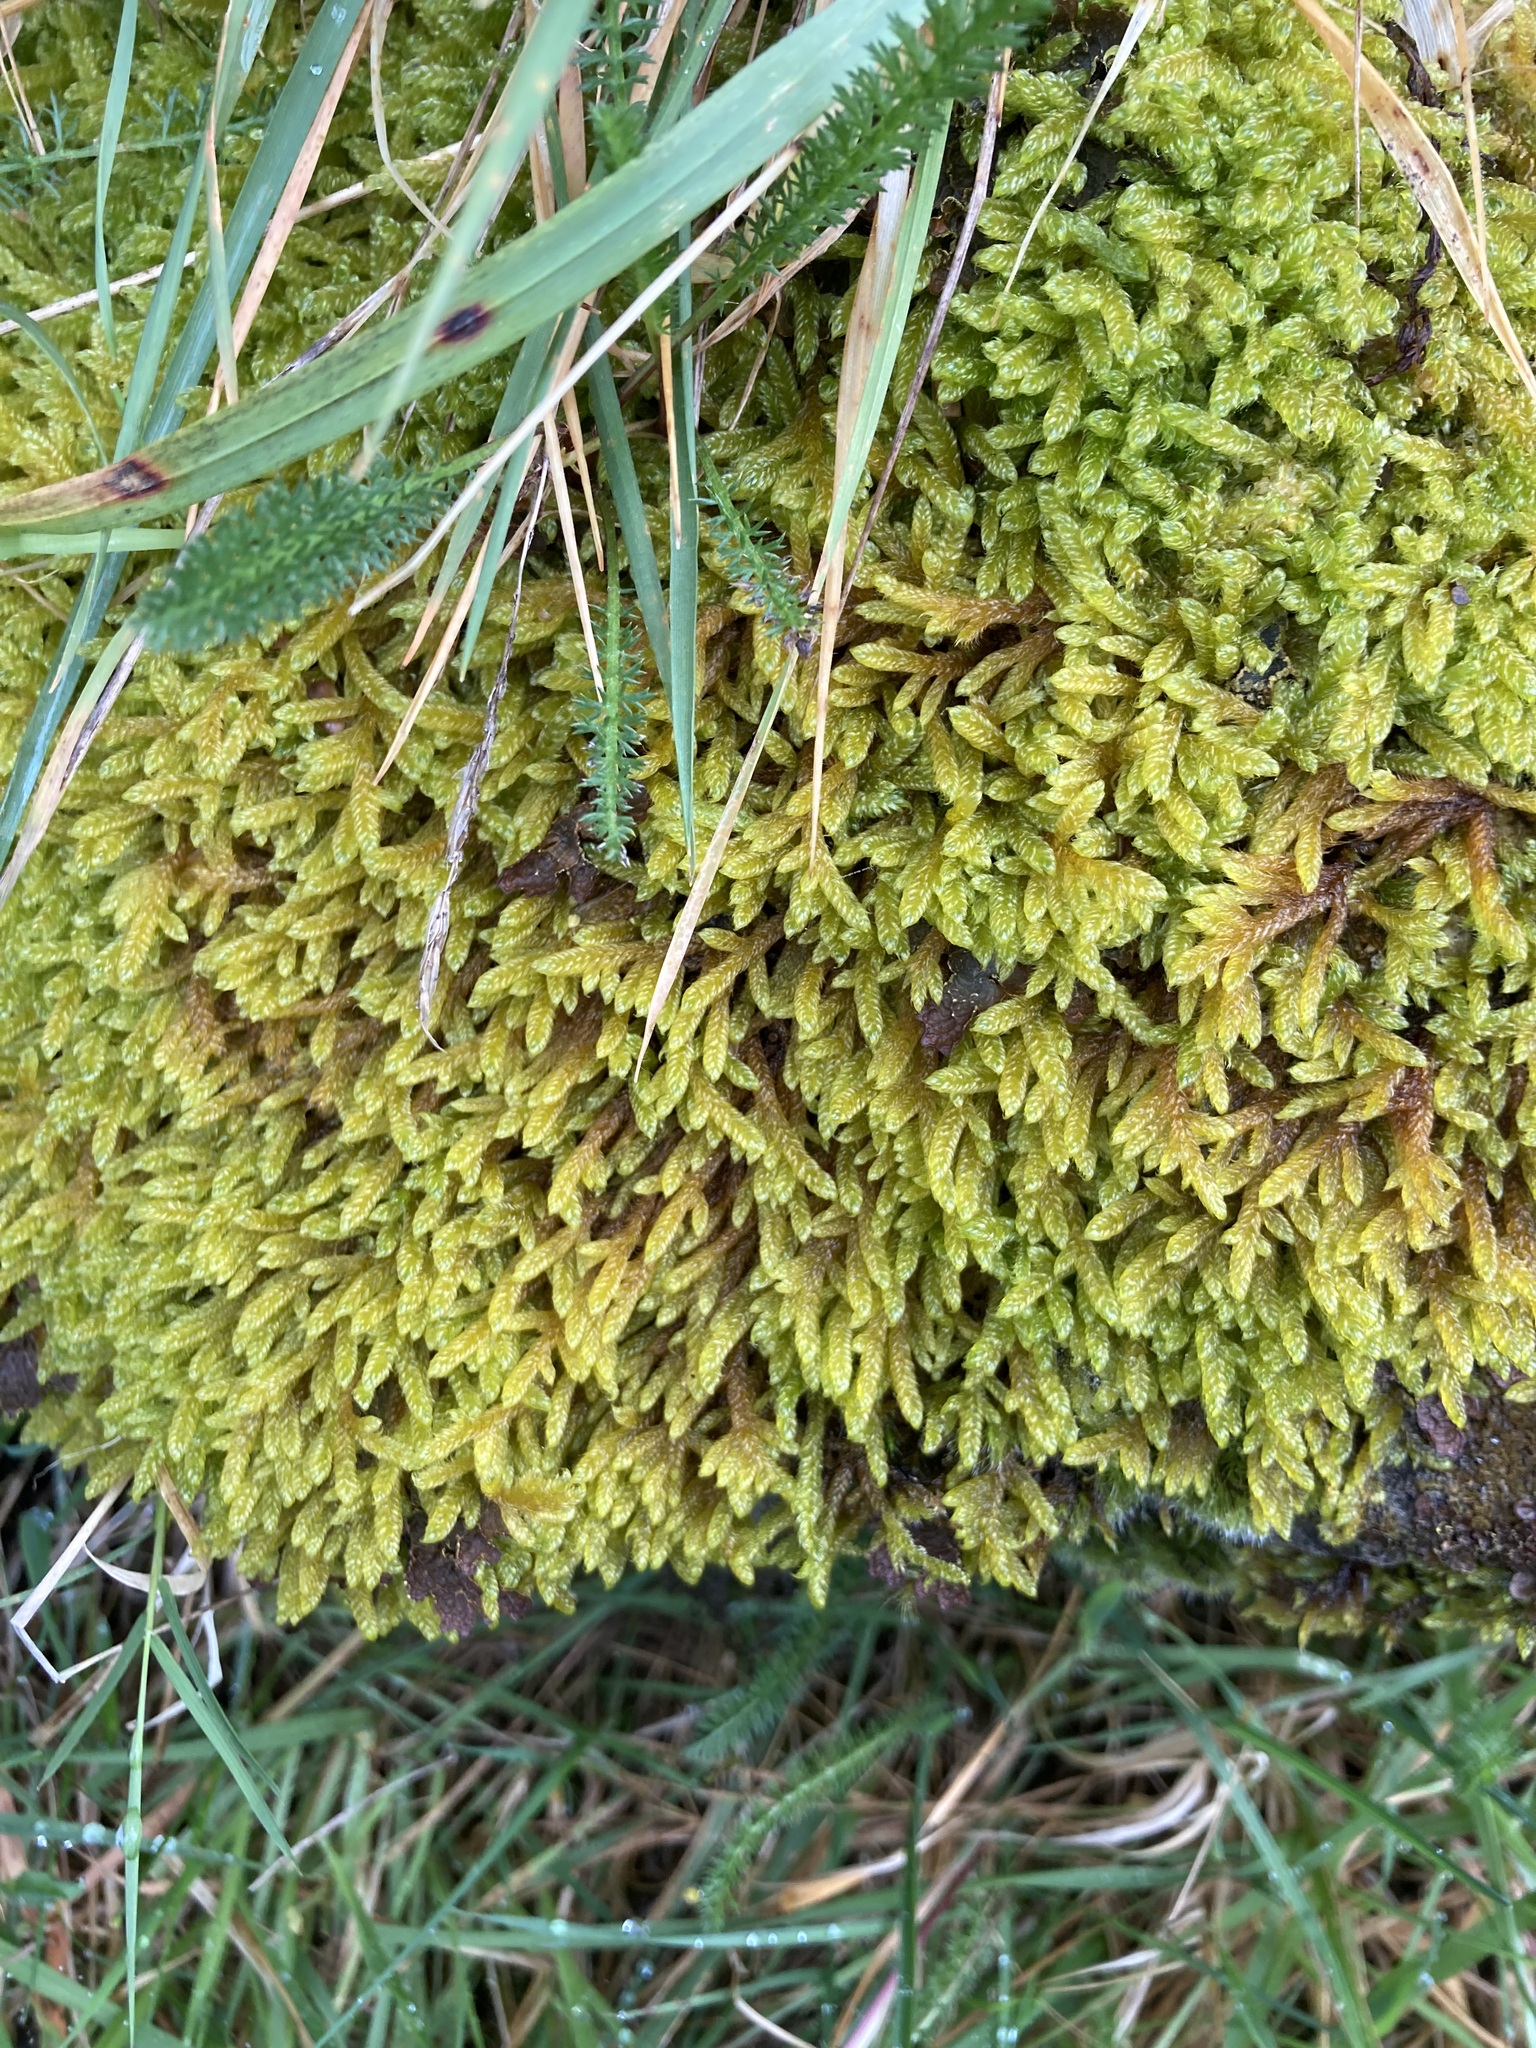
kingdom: Plantae
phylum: Bryophyta
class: Bryopsida
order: Hypnales
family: Hypnaceae
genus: Hypnum
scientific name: Hypnum cupressiforme
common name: Cypress-leaved plait-moss
